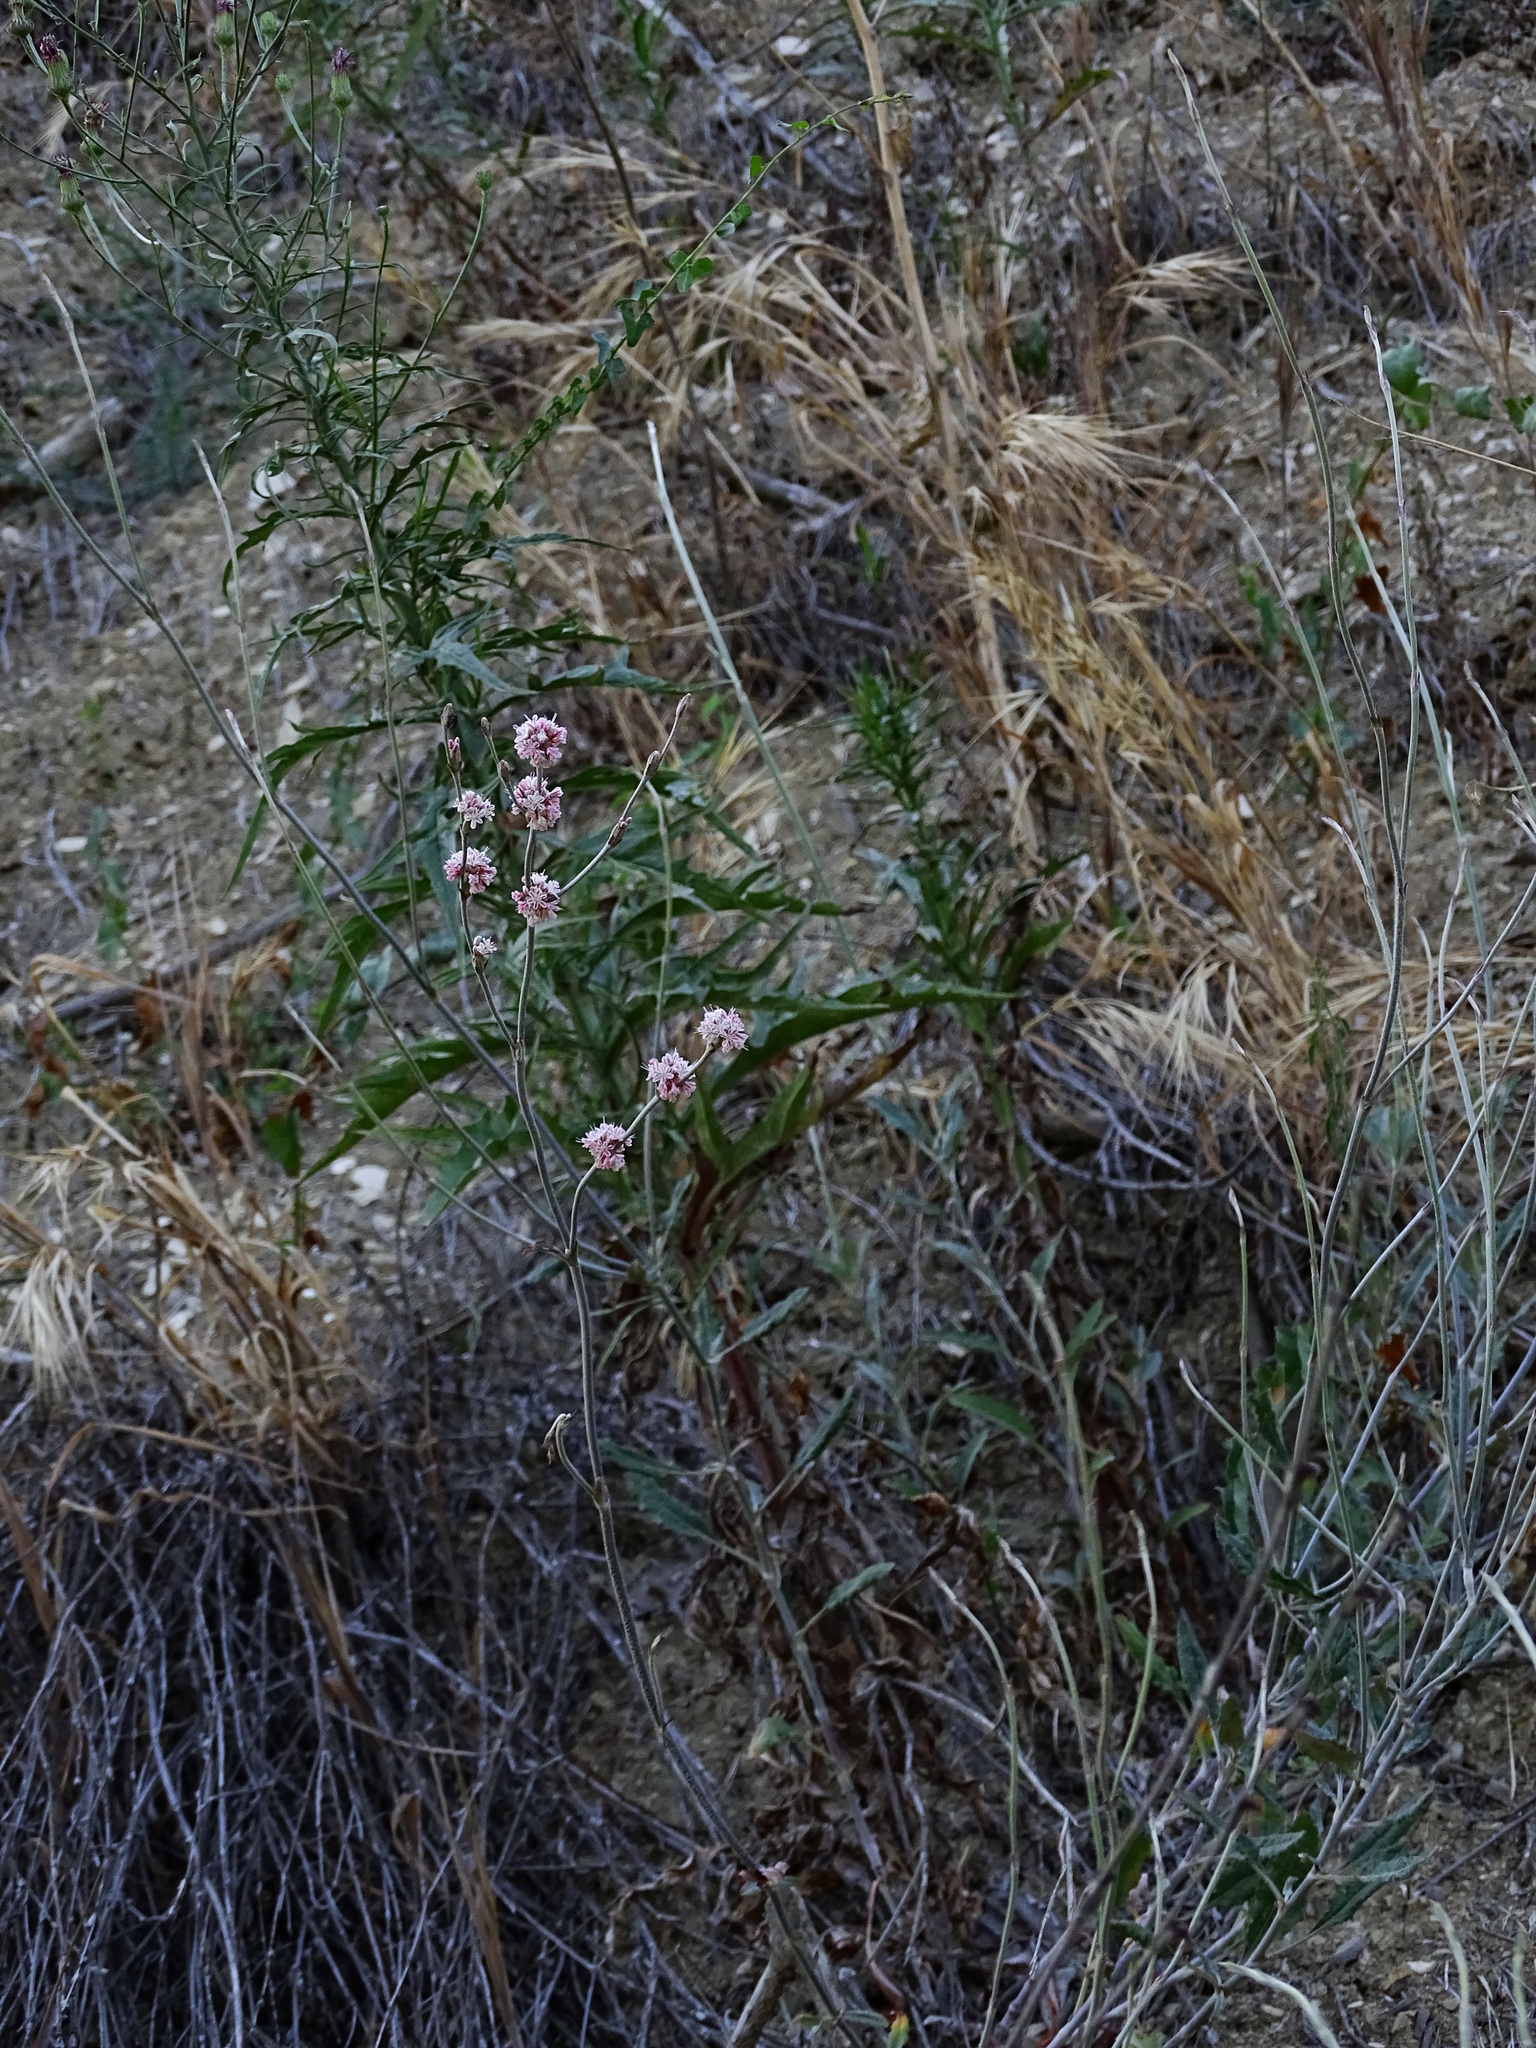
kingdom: Plantae
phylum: Tracheophyta
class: Magnoliopsida
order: Caryophyllales
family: Polygonaceae
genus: Eriogonum
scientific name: Eriogonum elongatum
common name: Long-stem wild buckwheat
